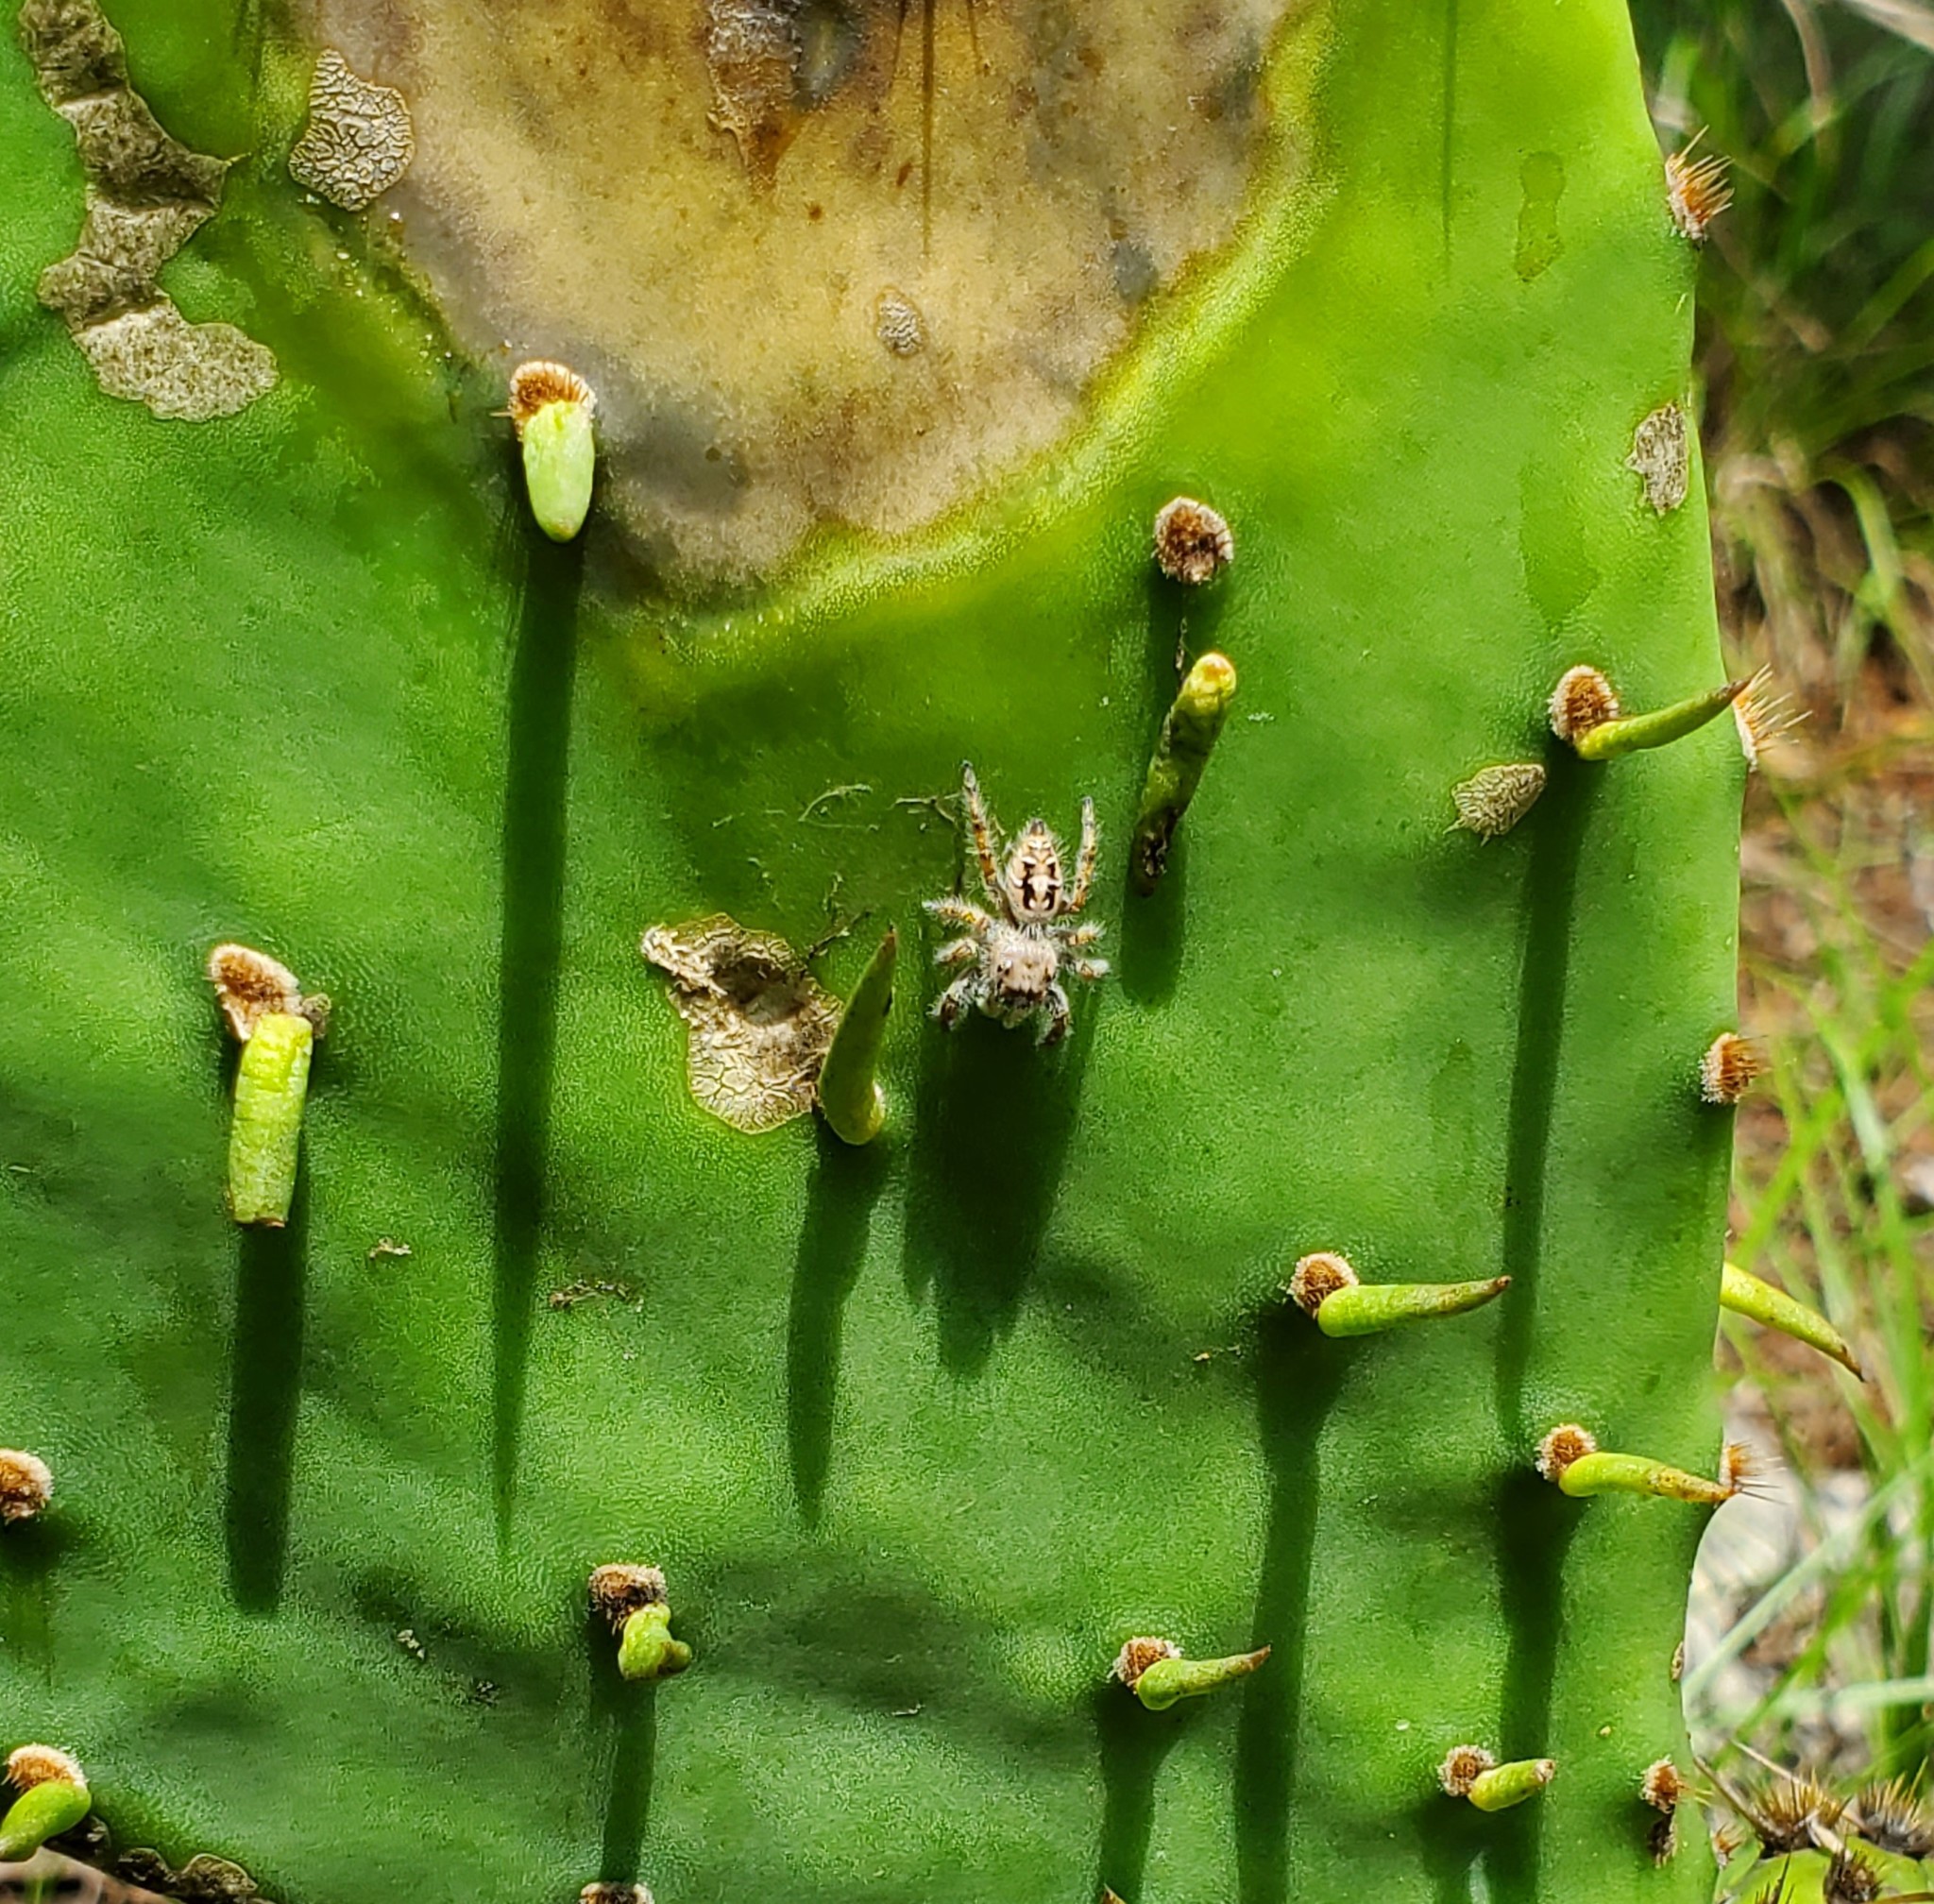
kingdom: Animalia
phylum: Arthropoda
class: Arachnida
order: Araneae
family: Salticidae
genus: Phidippus
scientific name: Phidippus carolinensis
